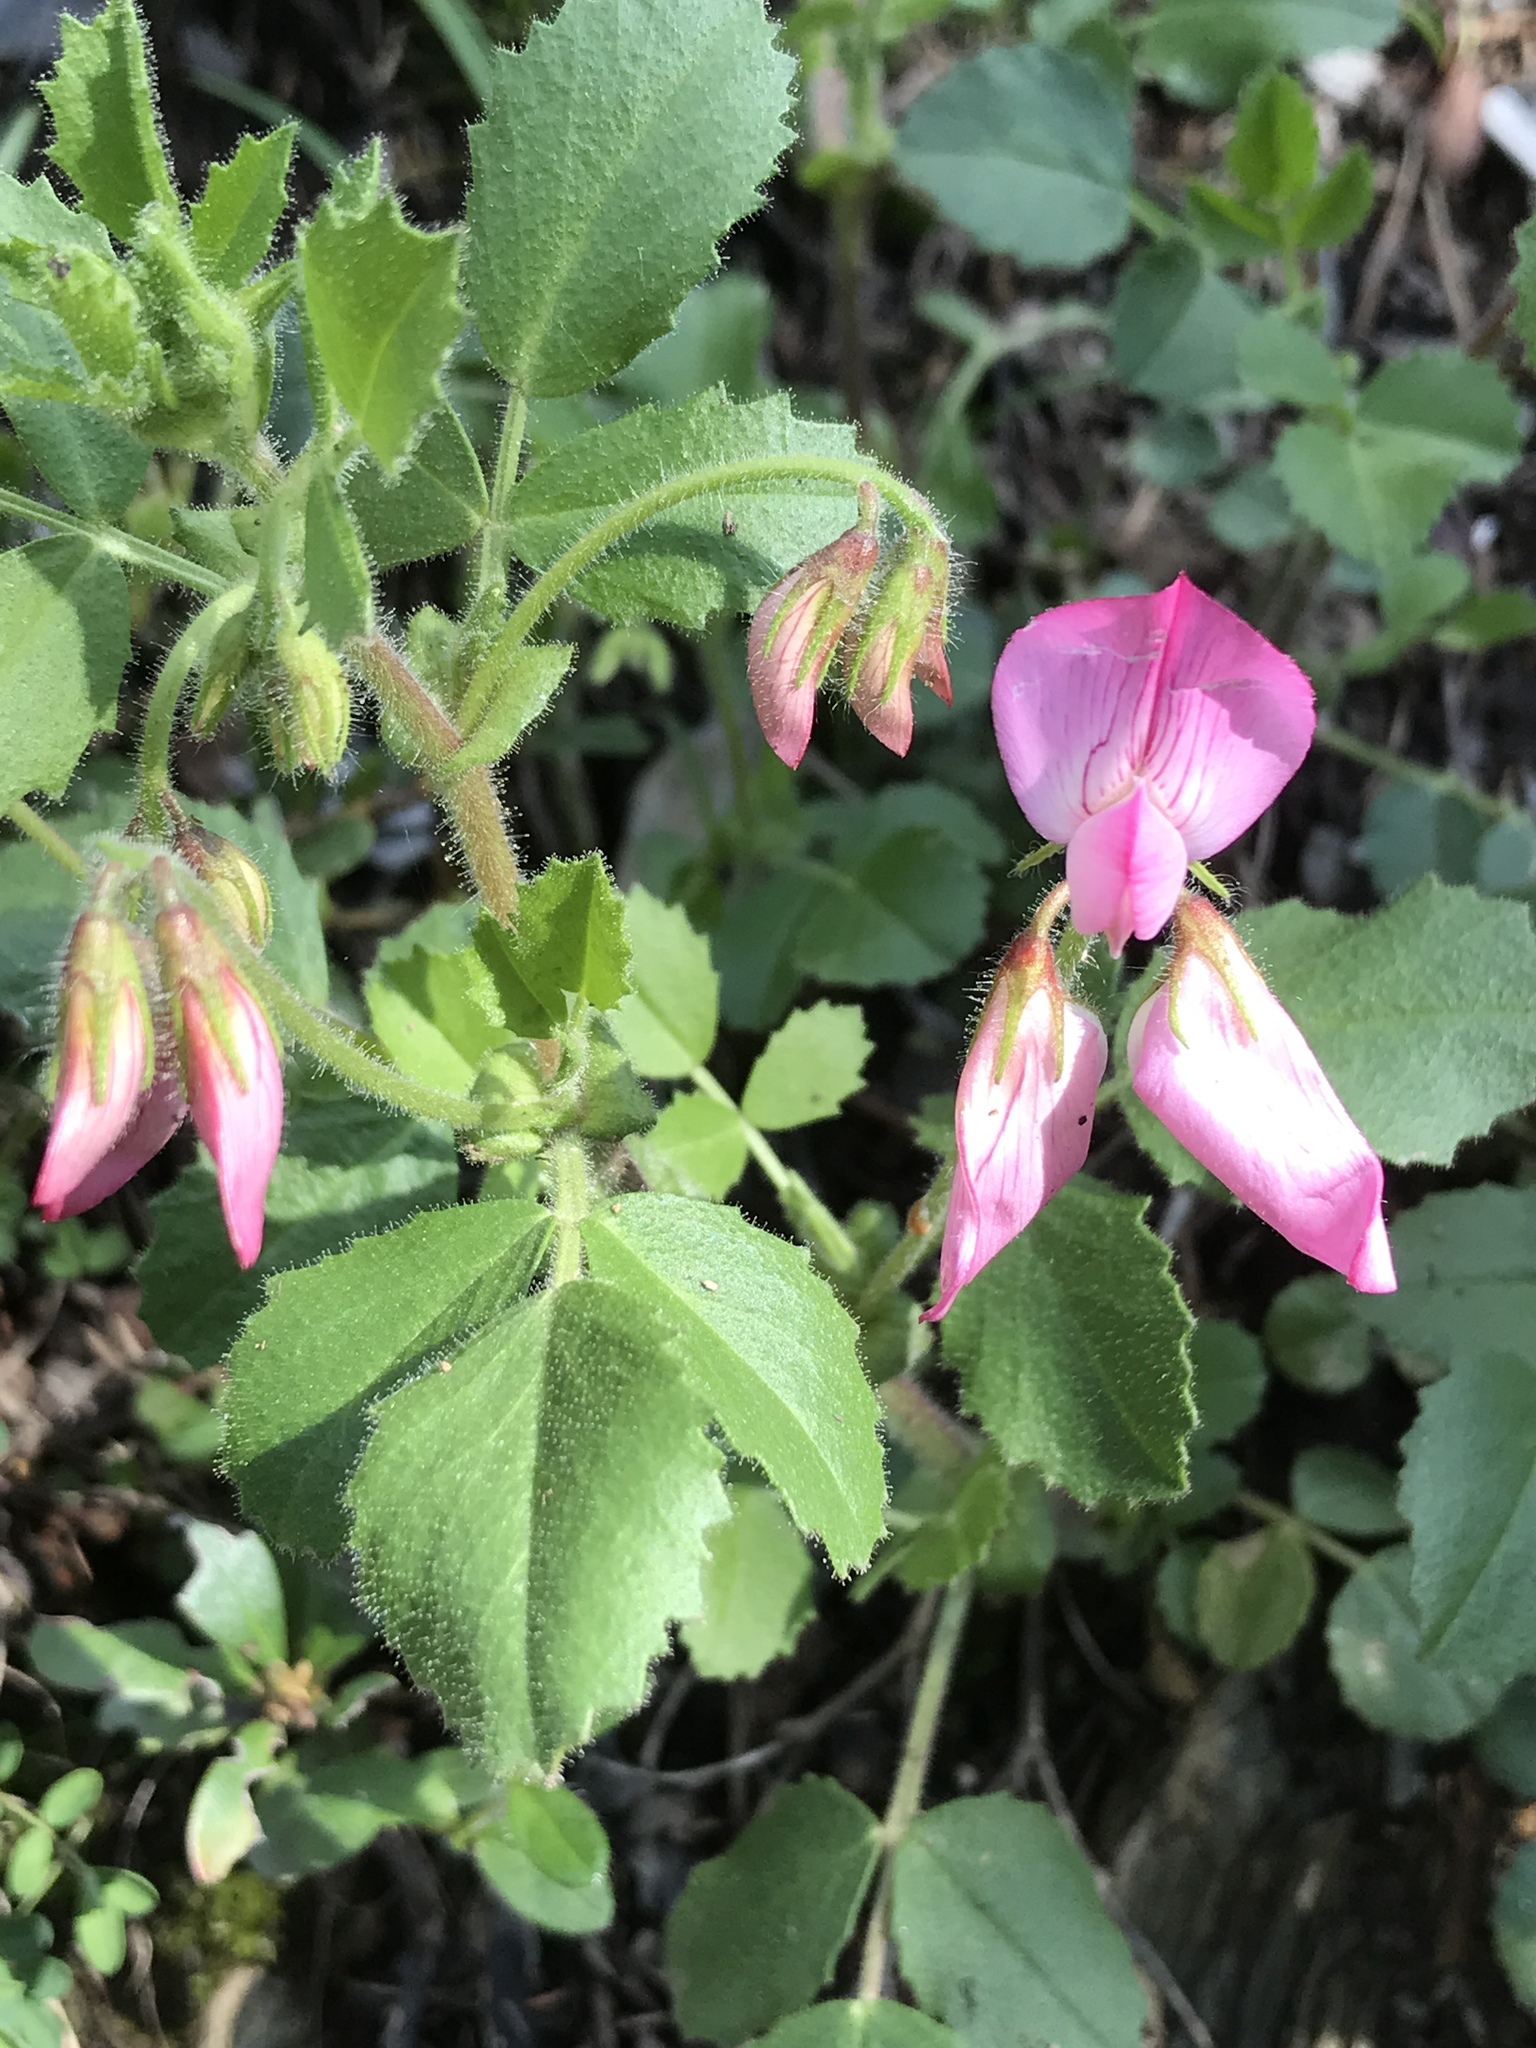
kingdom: Plantae
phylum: Tracheophyta
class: Magnoliopsida
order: Fabales
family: Fabaceae
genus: Ononis
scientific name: Ononis rotundifolia
